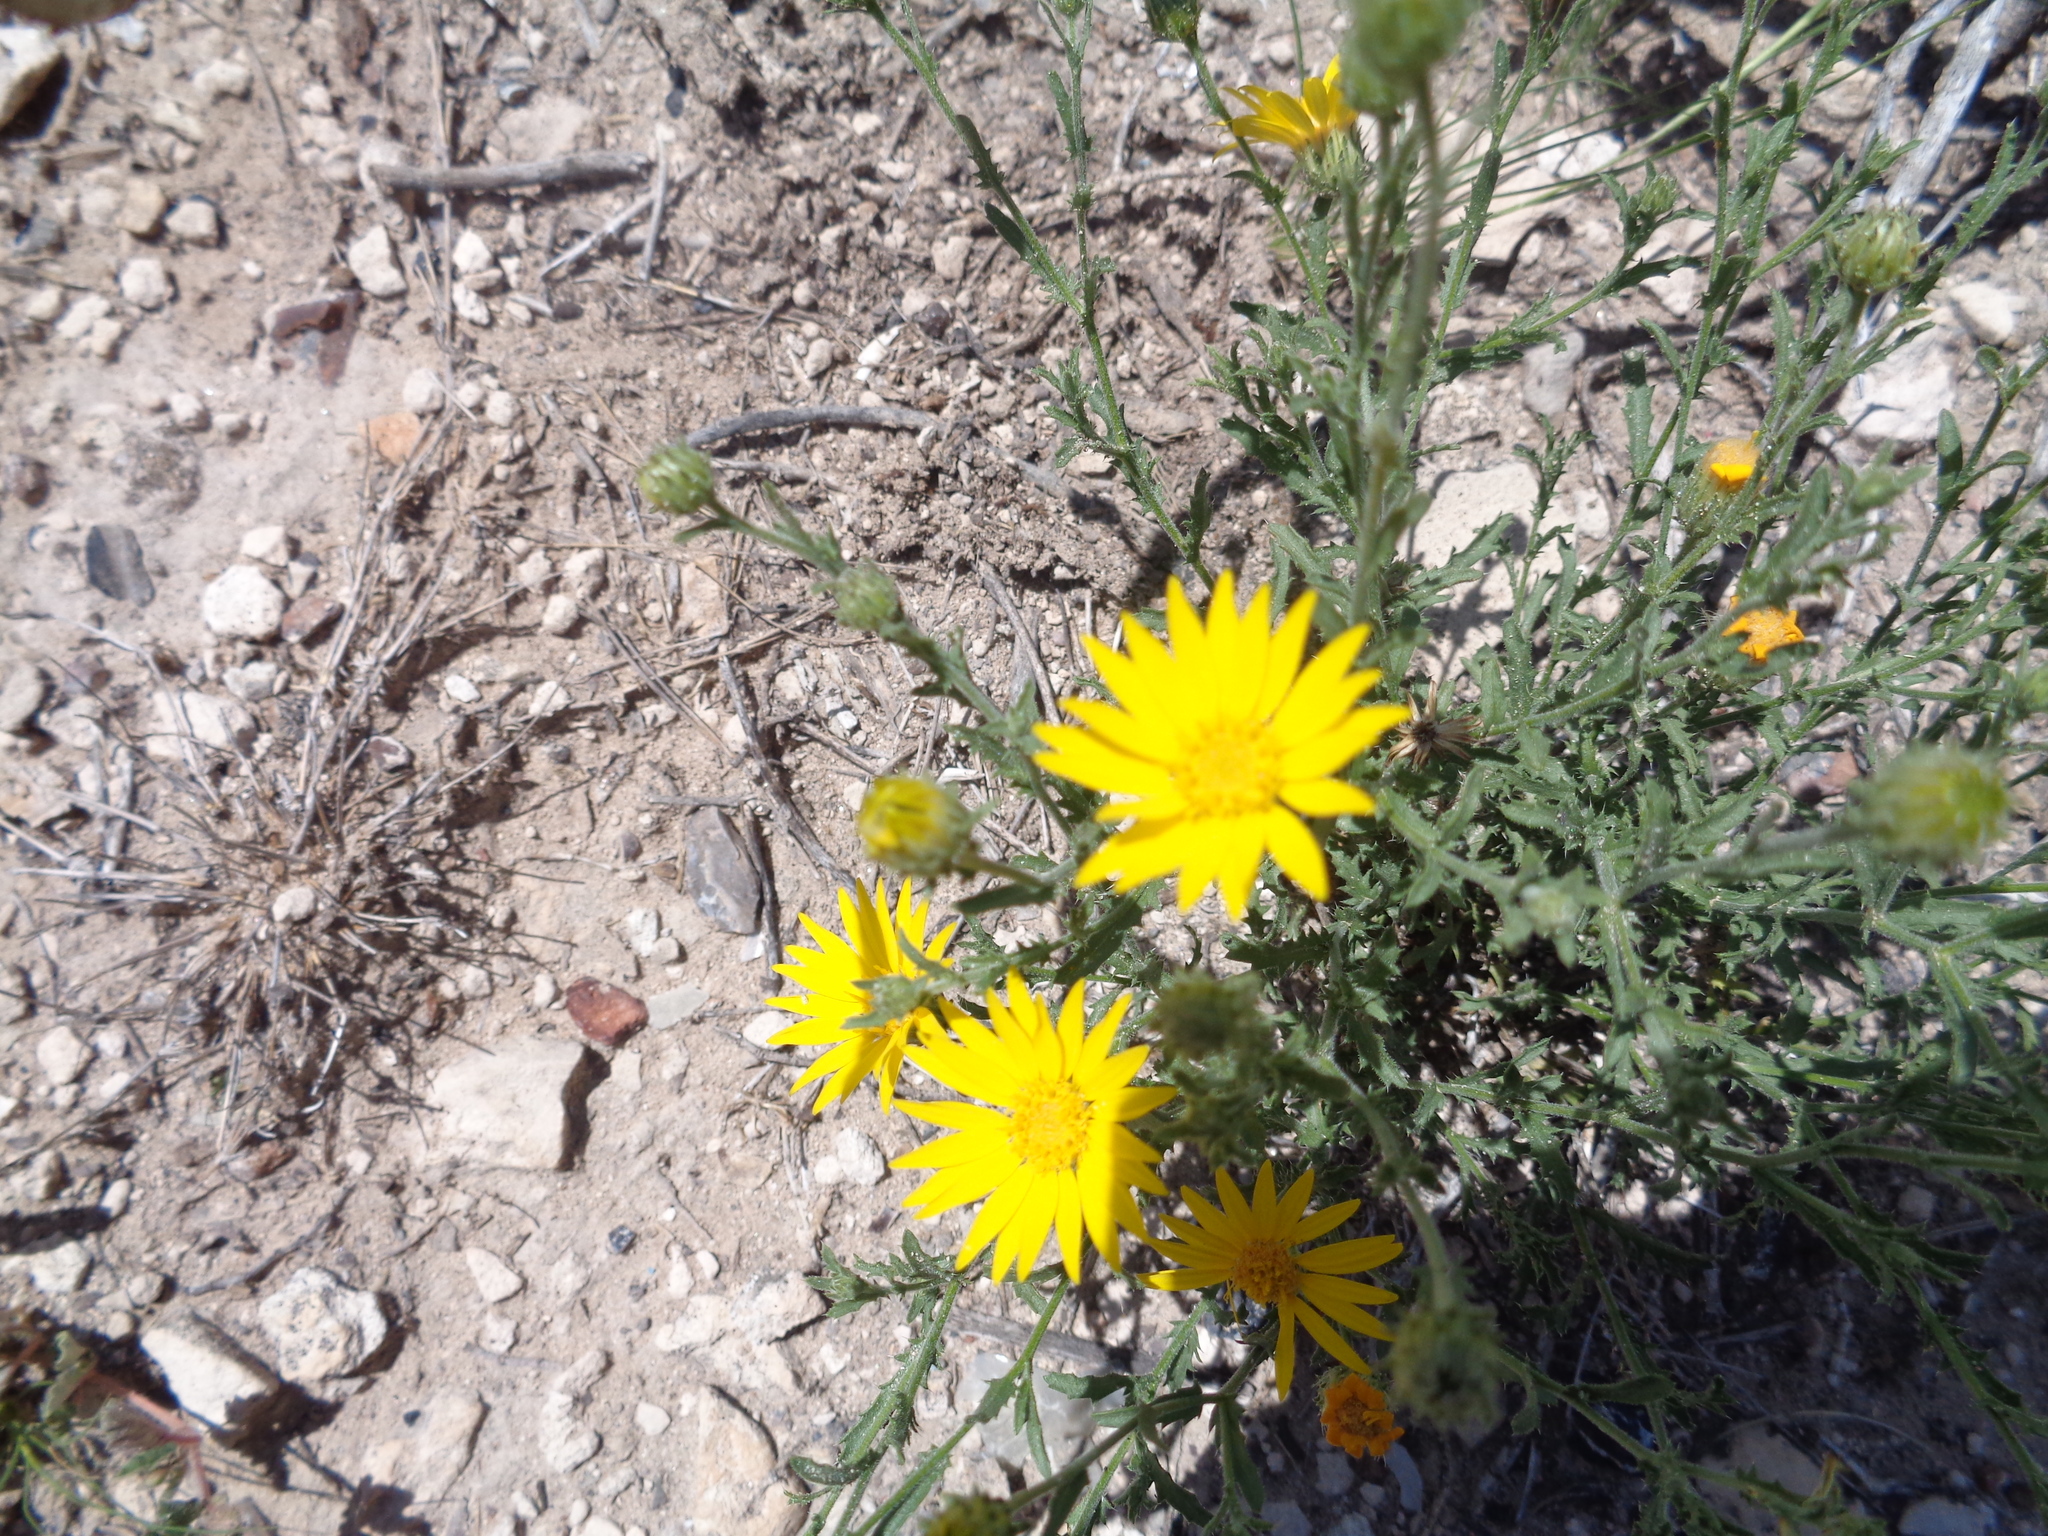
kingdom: Plantae
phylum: Tracheophyta
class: Magnoliopsida
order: Asterales
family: Asteraceae
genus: Xanthisma
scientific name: Xanthisma spinulosum
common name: Spiny goldenweed
